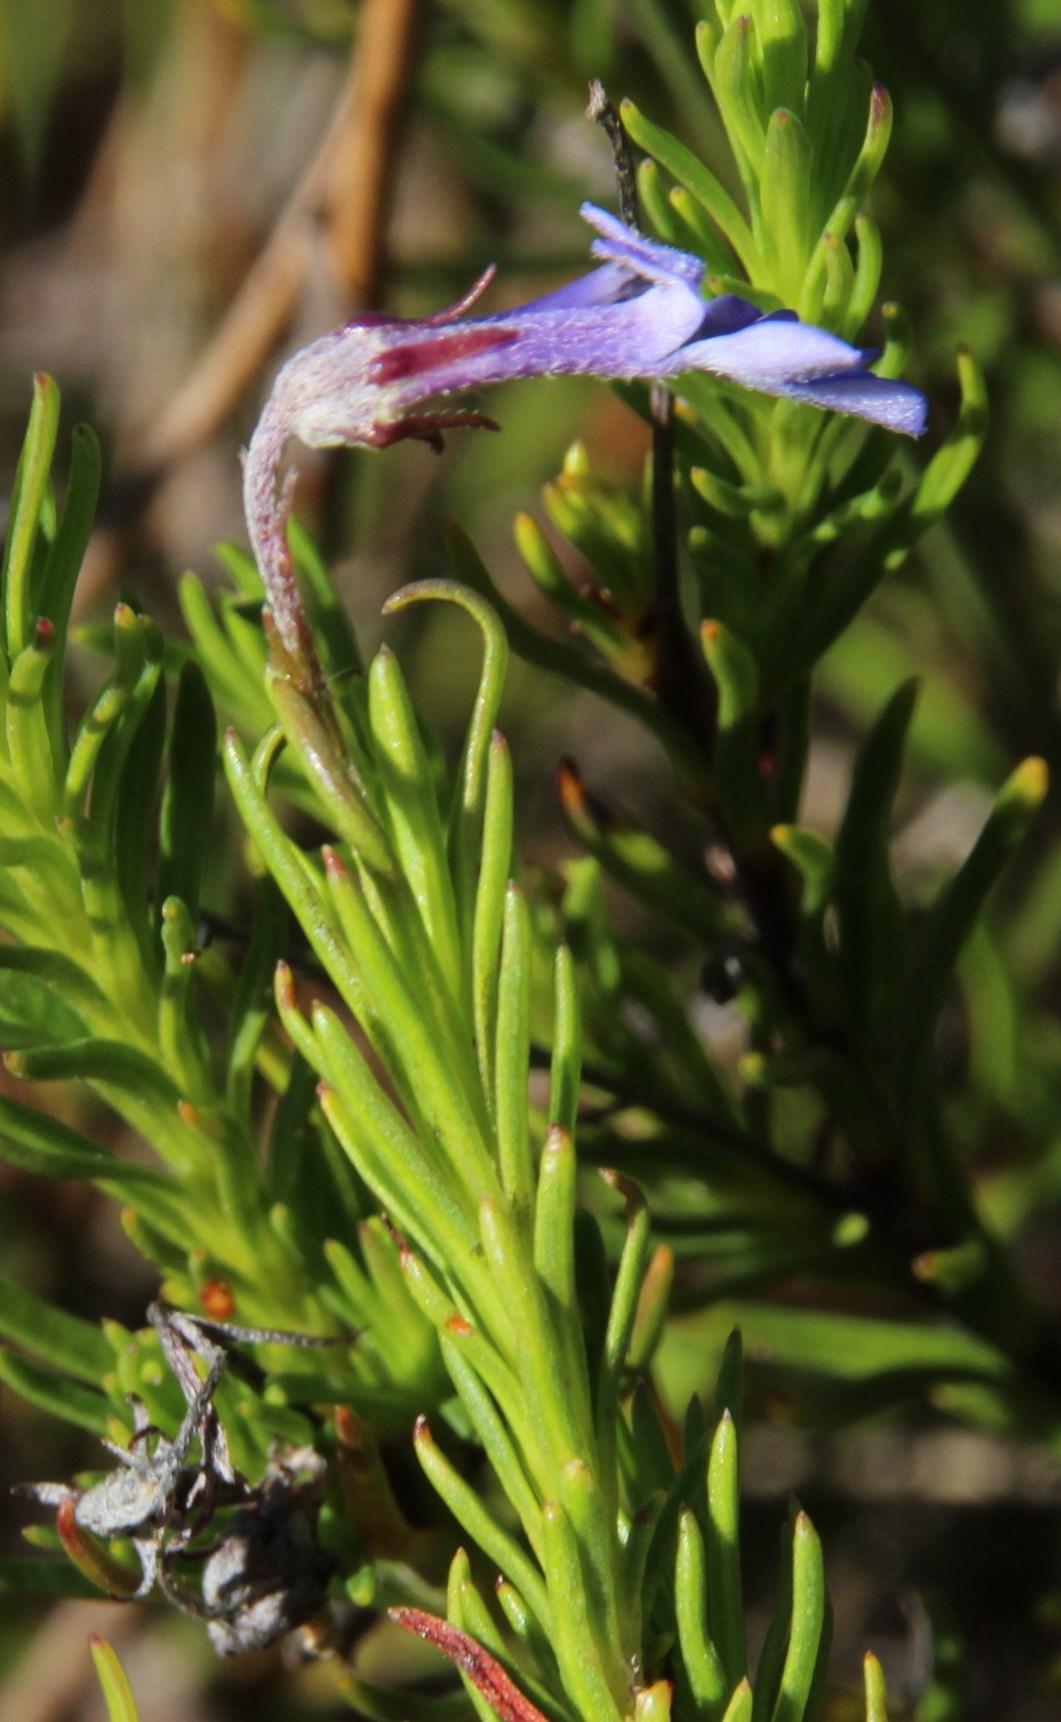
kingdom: Plantae
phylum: Tracheophyta
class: Magnoliopsida
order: Asterales
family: Campanulaceae
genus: Lobelia
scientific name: Lobelia pinifolia
